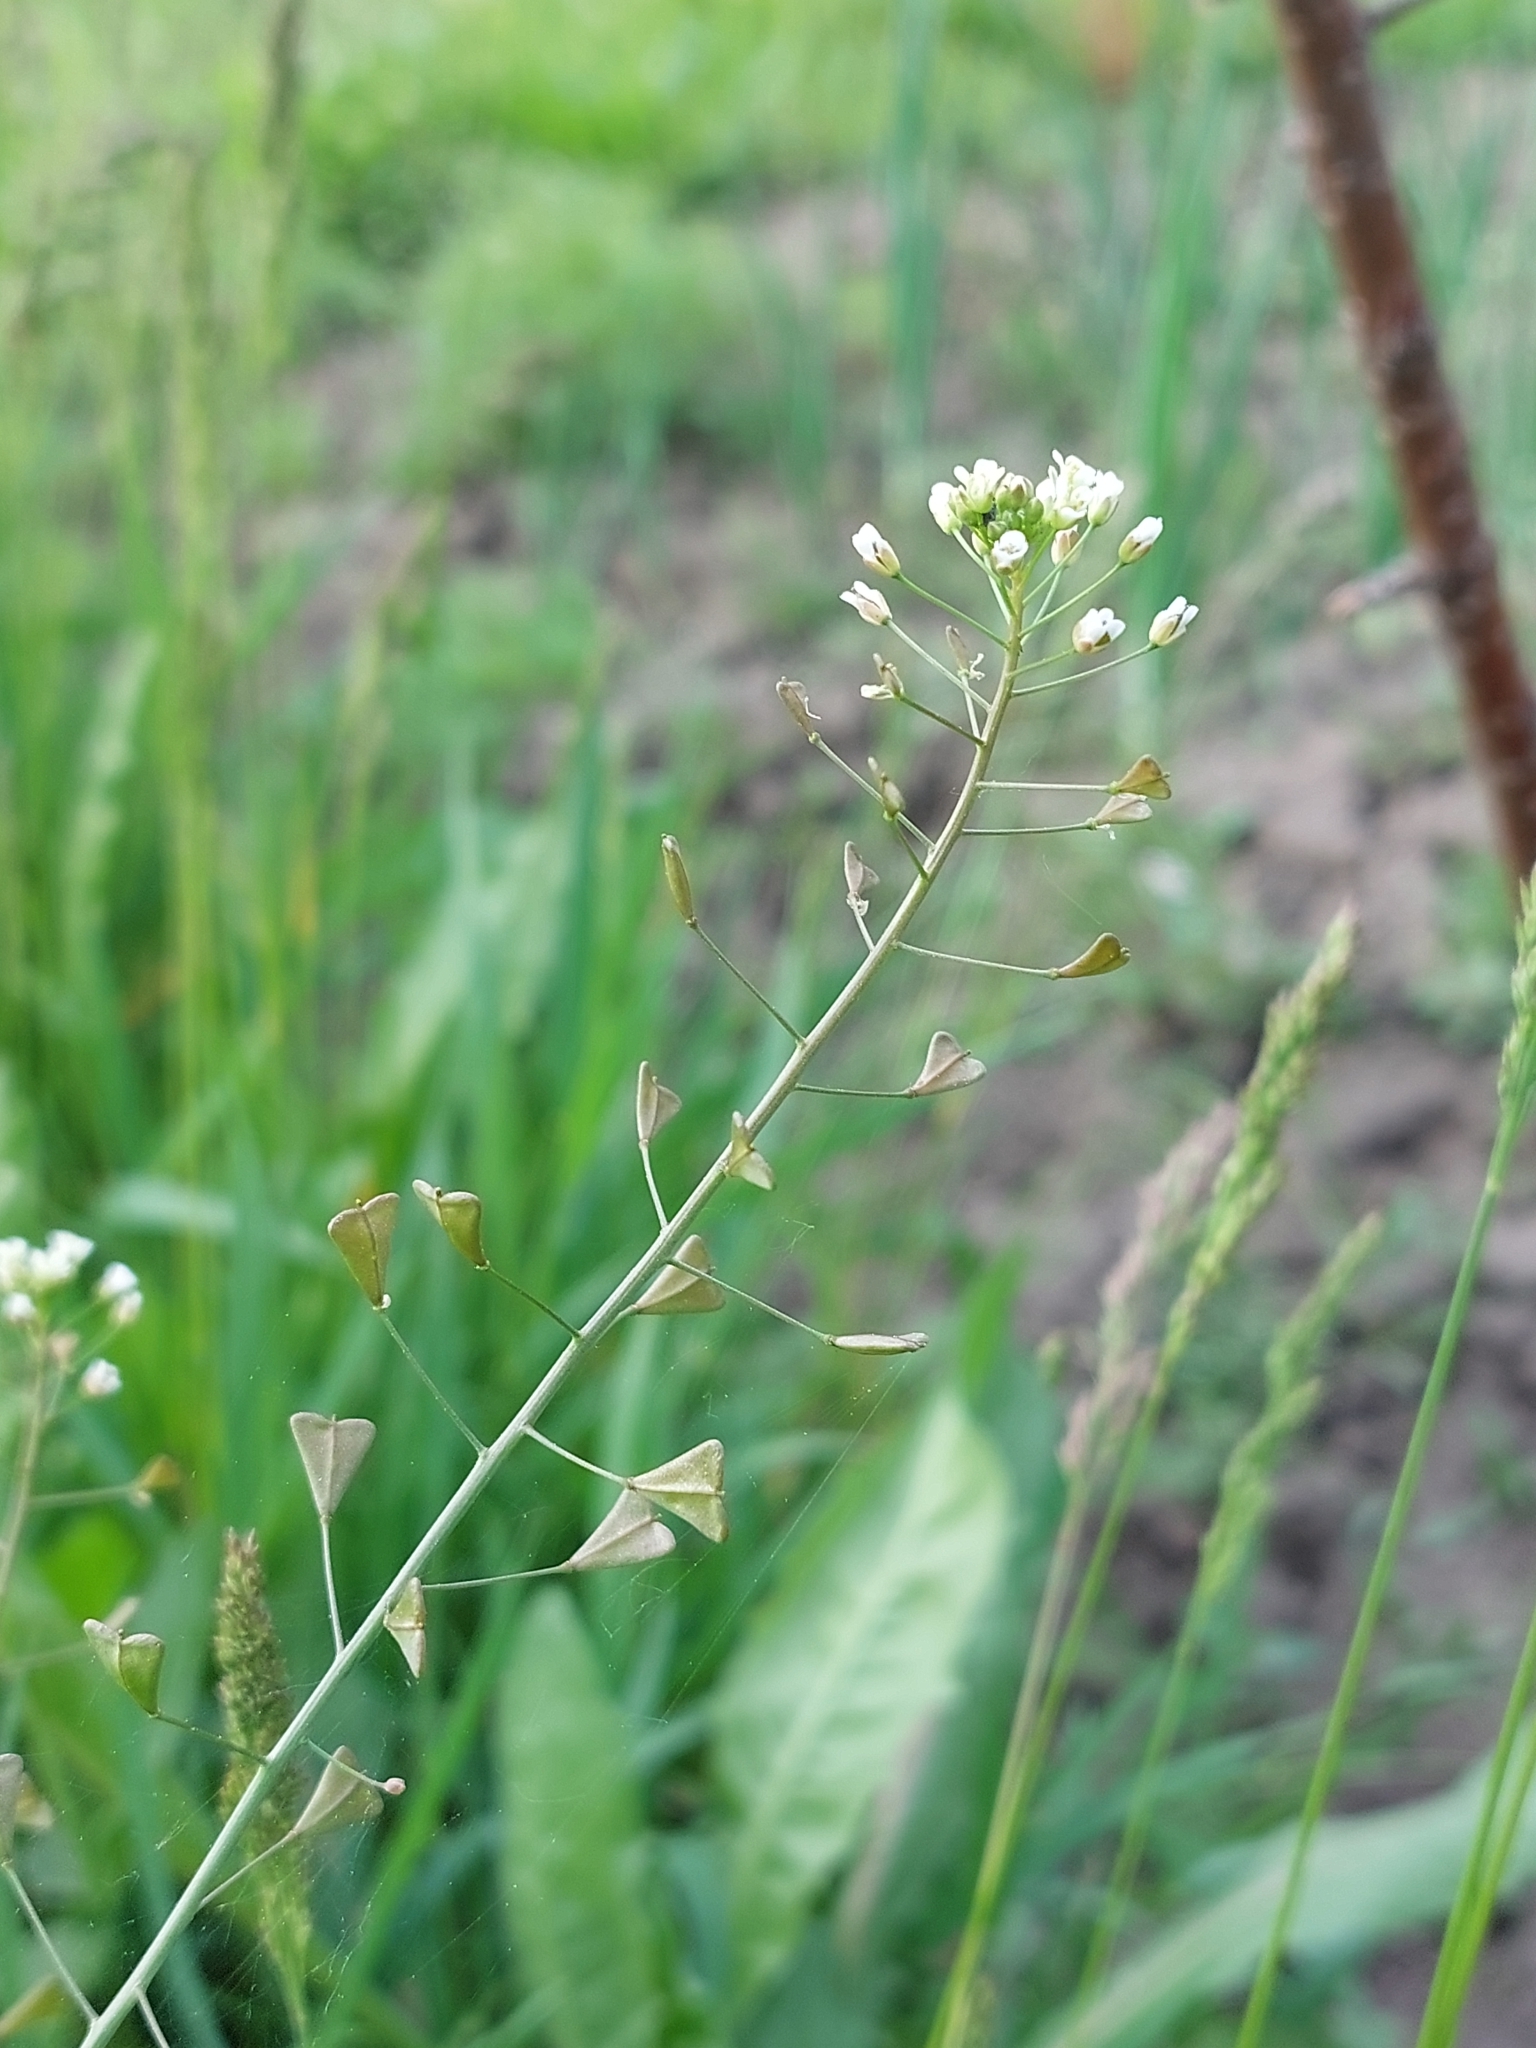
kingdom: Plantae
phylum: Tracheophyta
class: Magnoliopsida
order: Brassicales
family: Brassicaceae
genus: Capsella
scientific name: Capsella bursa-pastoris
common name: Shepherd's purse
